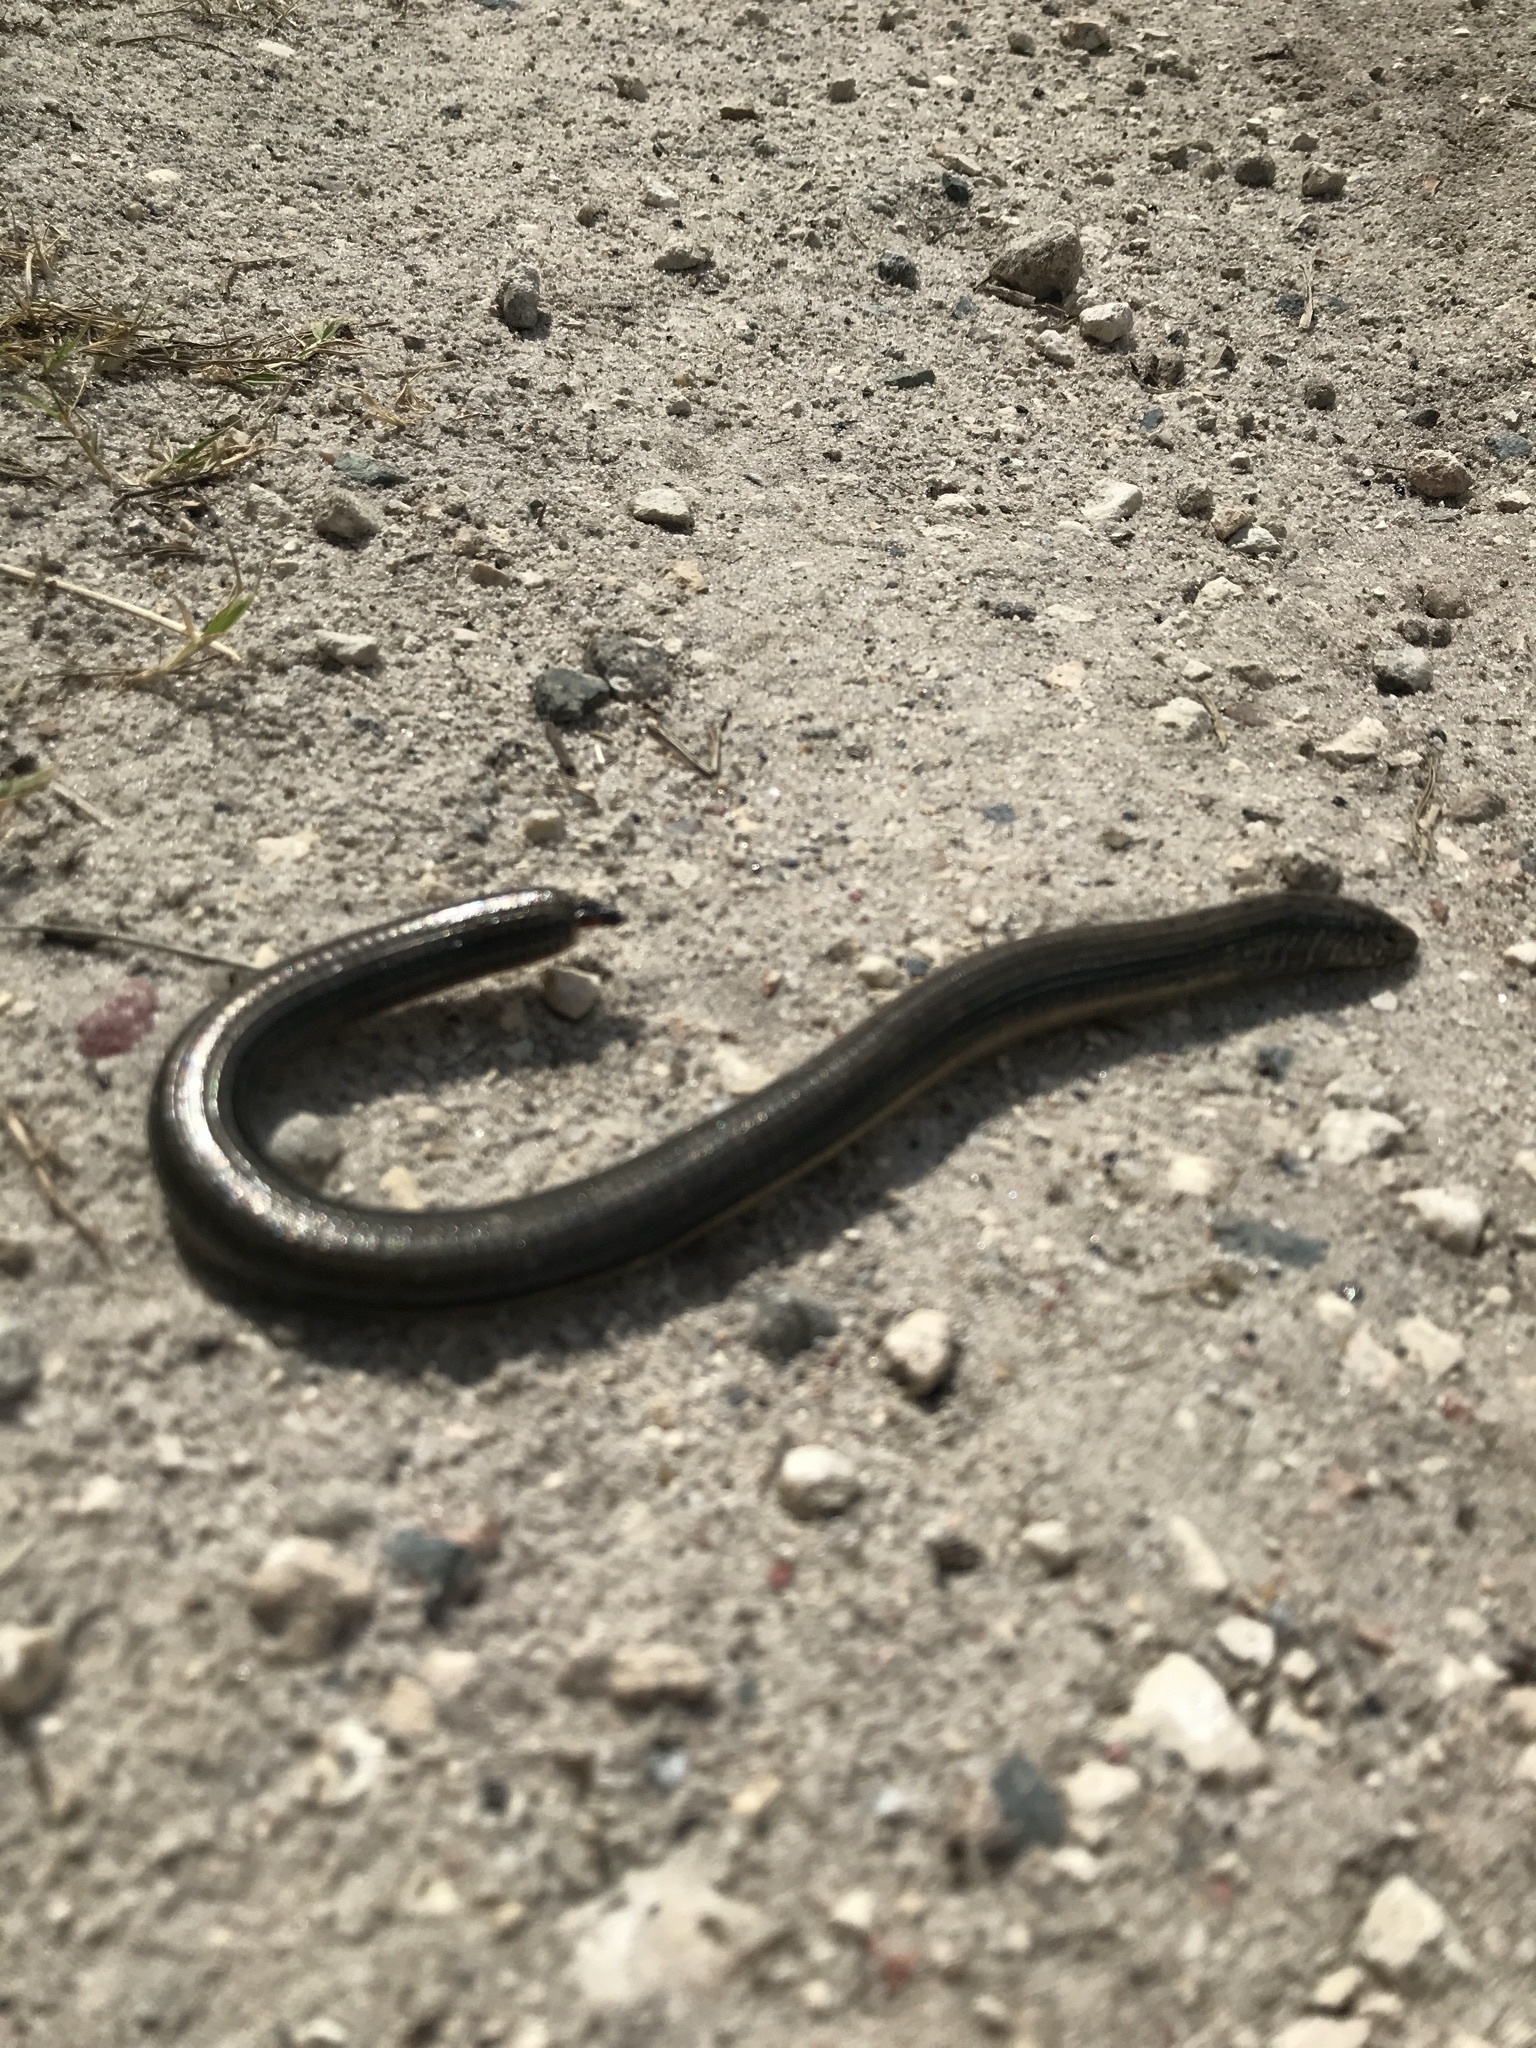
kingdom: Animalia
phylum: Chordata
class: Squamata
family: Anguidae
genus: Ophisaurus
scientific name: Ophisaurus ventralis
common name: Eastern glass lizard
